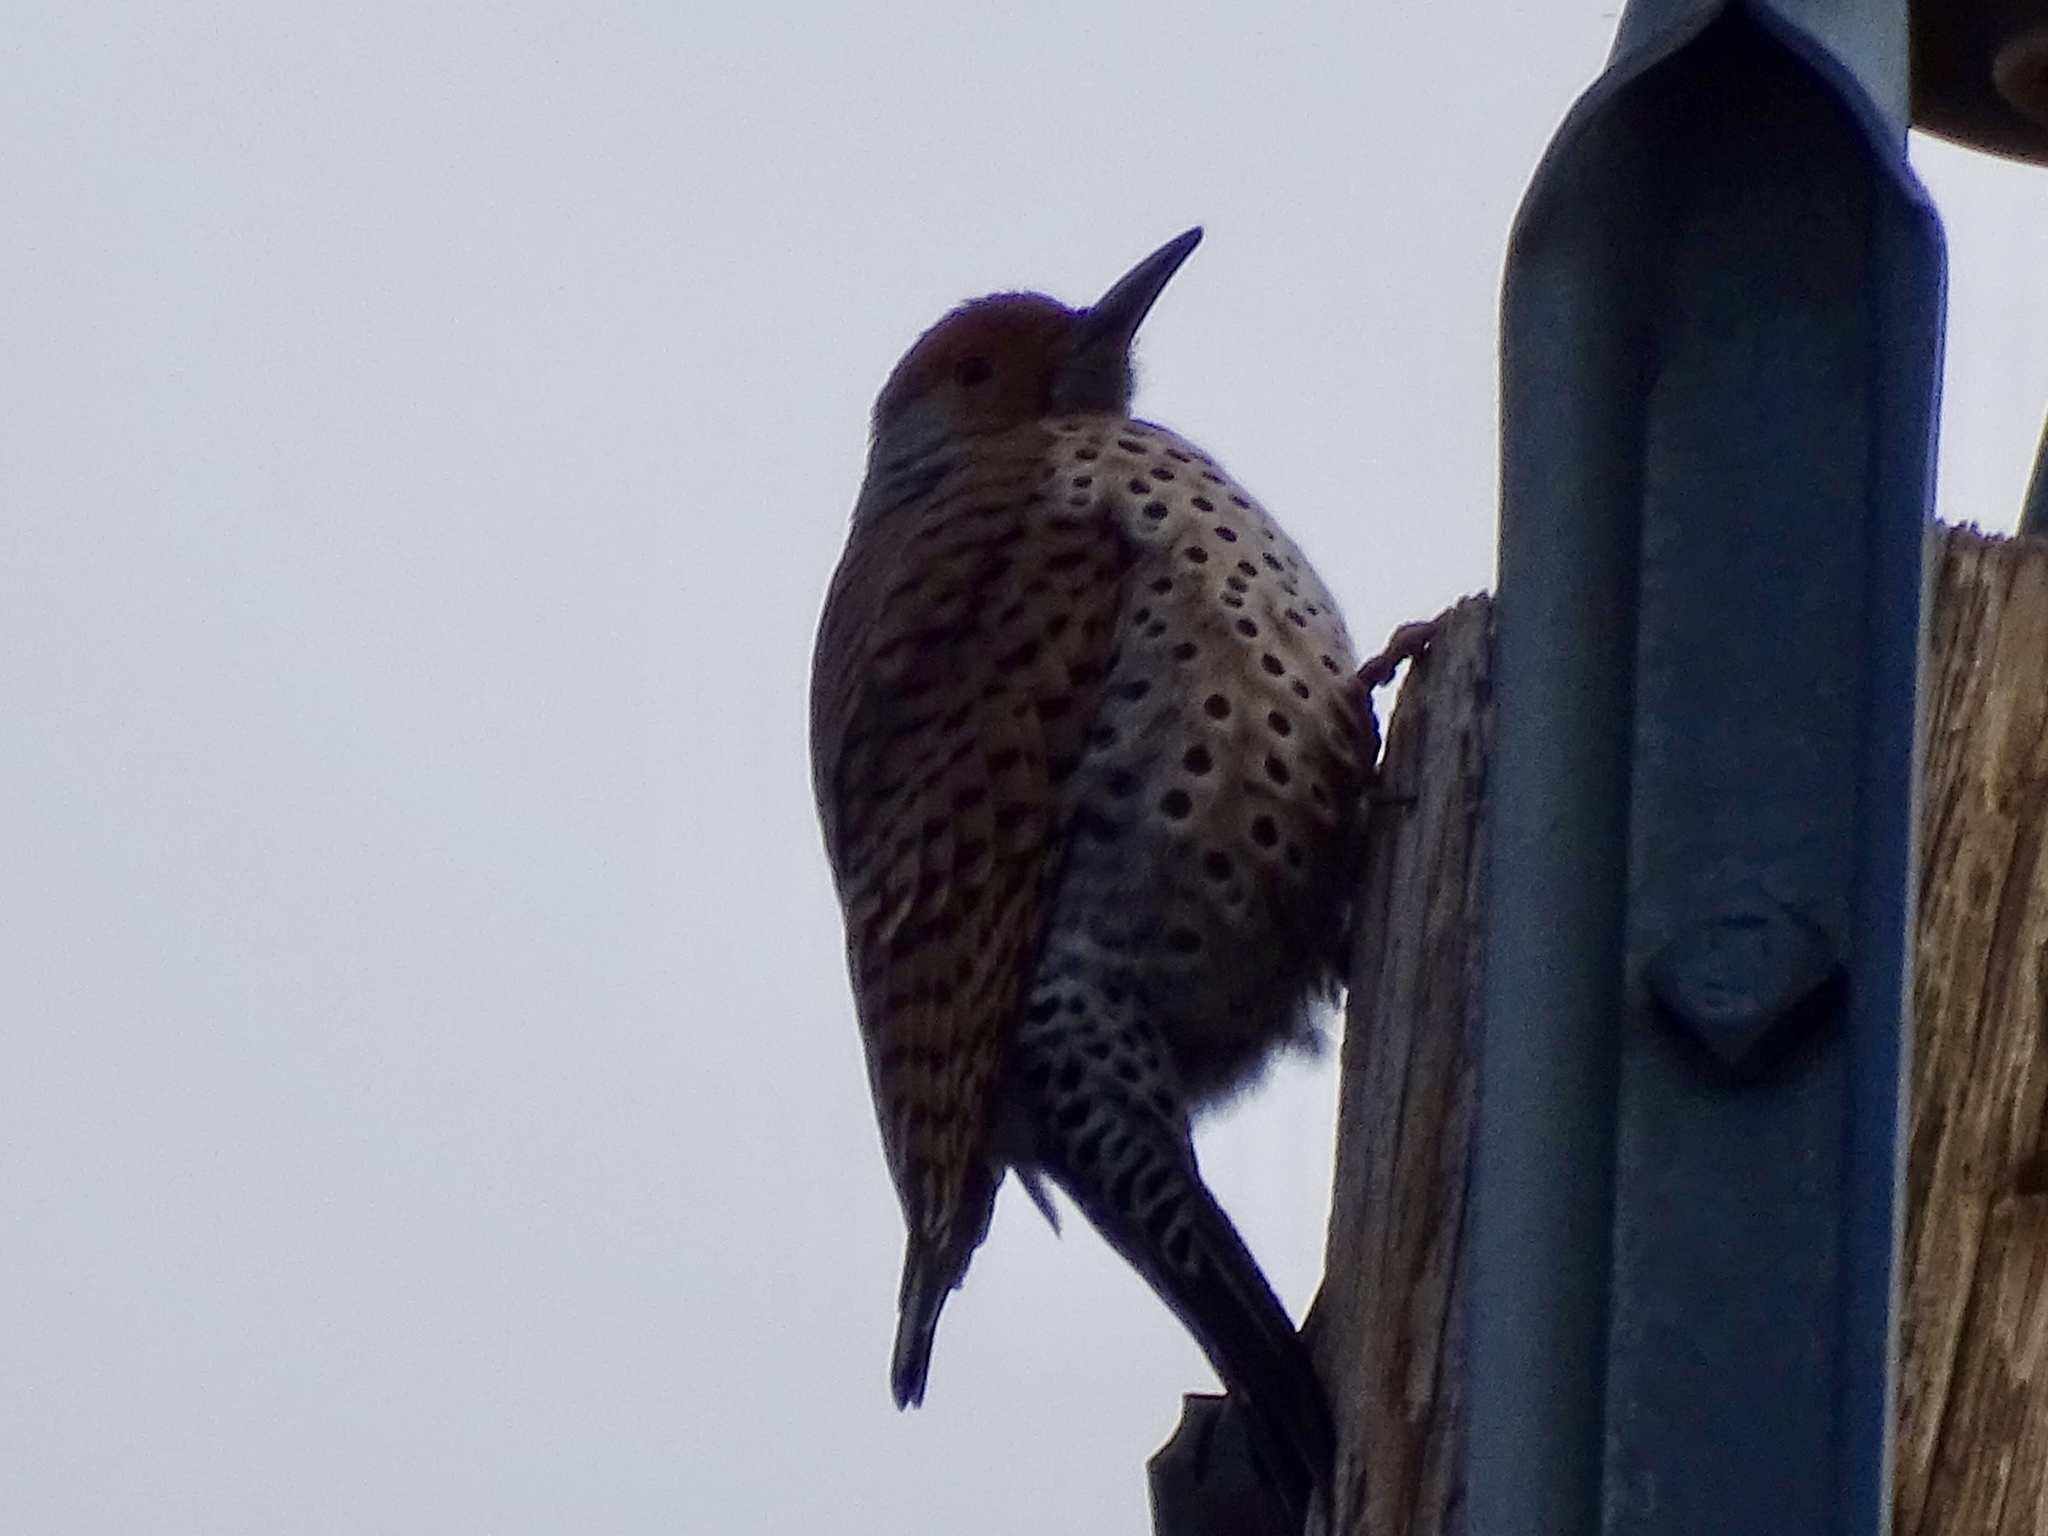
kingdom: Animalia
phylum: Chordata
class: Aves
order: Piciformes
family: Picidae
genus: Colaptes
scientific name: Colaptes auratus
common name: Northern flicker
